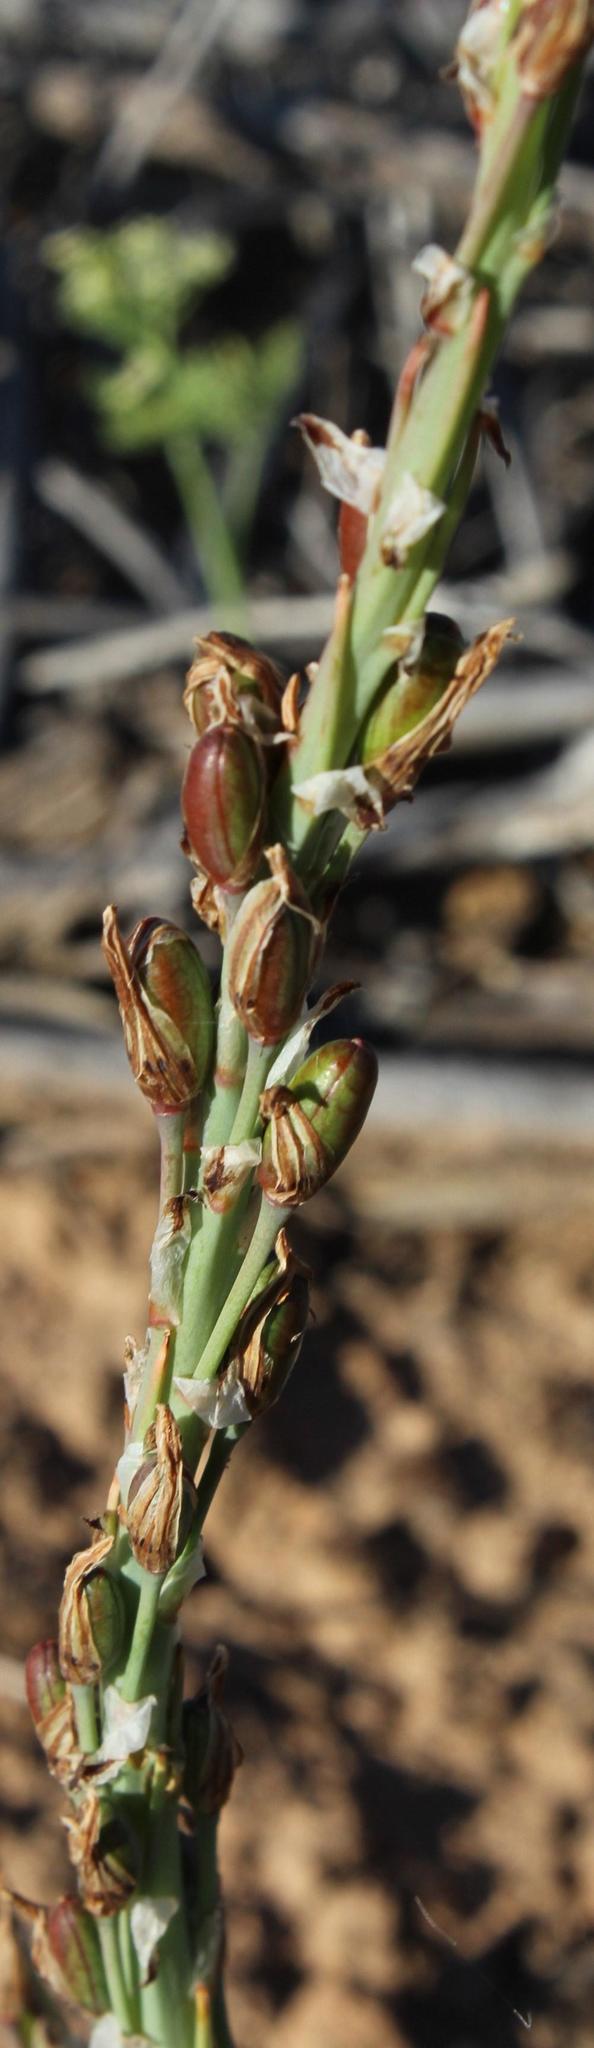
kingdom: Plantae
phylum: Tracheophyta
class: Liliopsida
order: Asparagales
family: Asphodelaceae
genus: Trachyandra
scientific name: Trachyandra falcata
